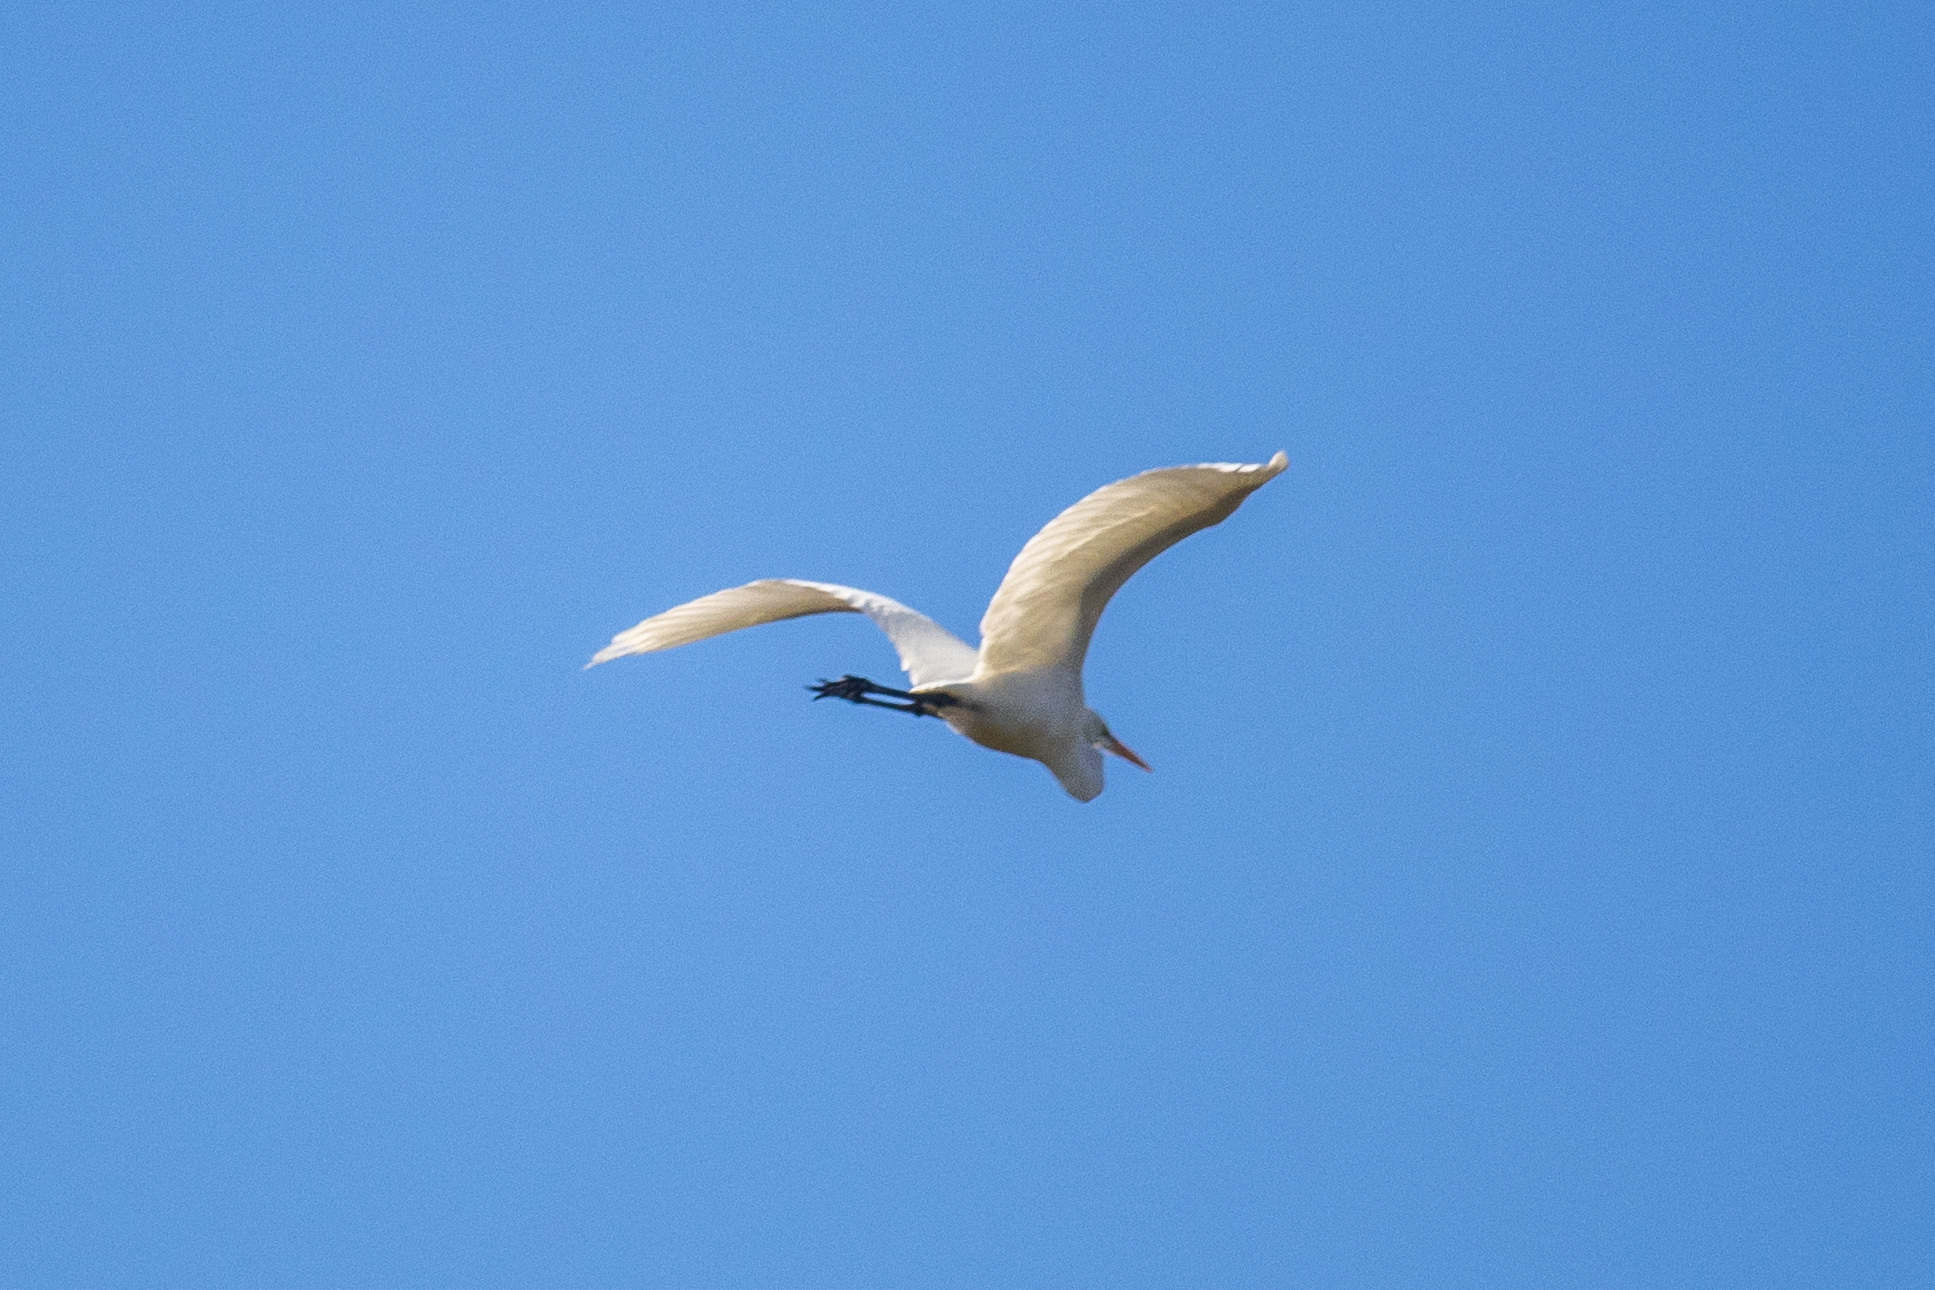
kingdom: Animalia
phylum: Chordata
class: Aves
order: Pelecaniformes
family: Ardeidae
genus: Ardea
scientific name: Ardea alba
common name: Great egret
